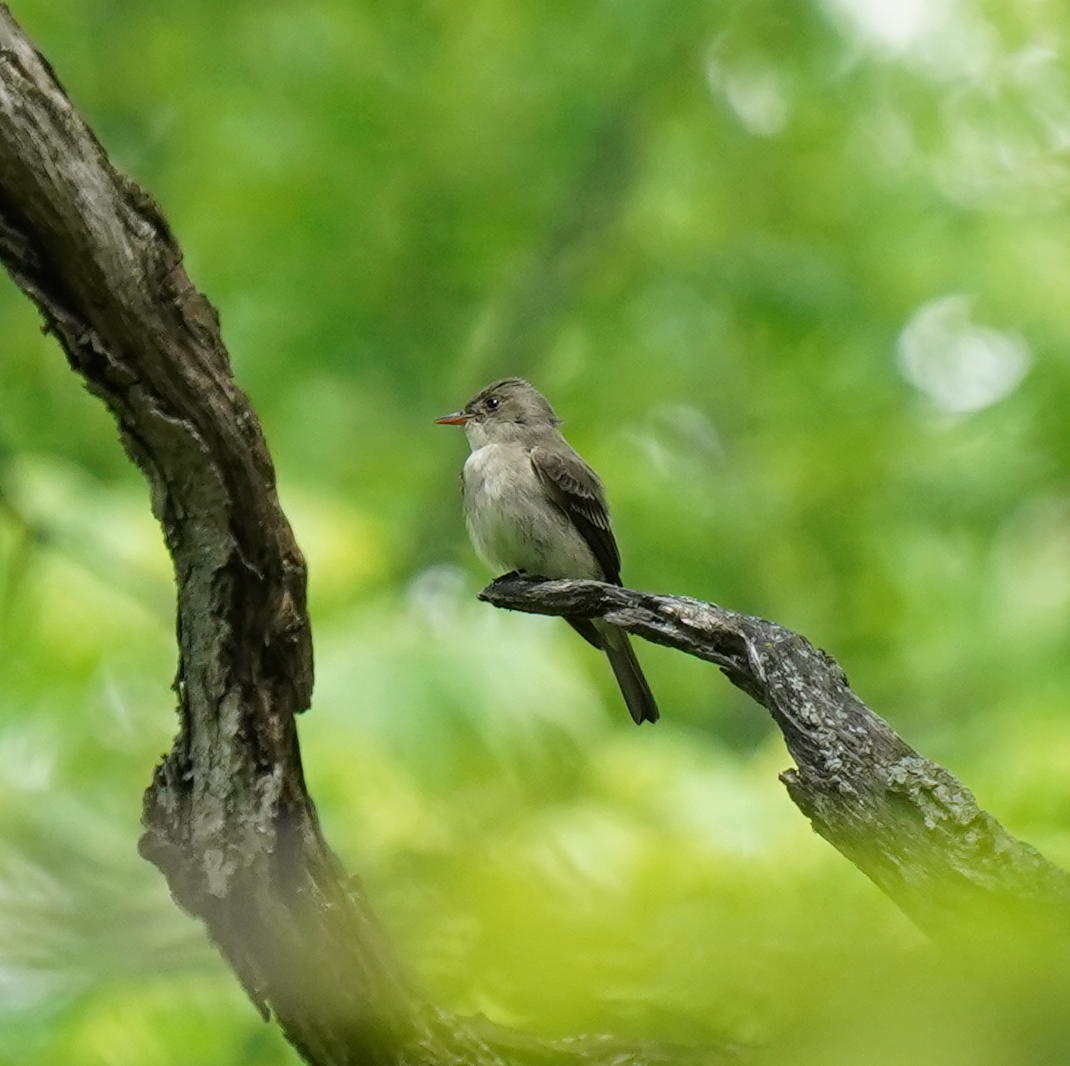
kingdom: Animalia
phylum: Chordata
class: Aves
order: Passeriformes
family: Tyrannidae
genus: Contopus
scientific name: Contopus virens
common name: Eastern wood-pewee
